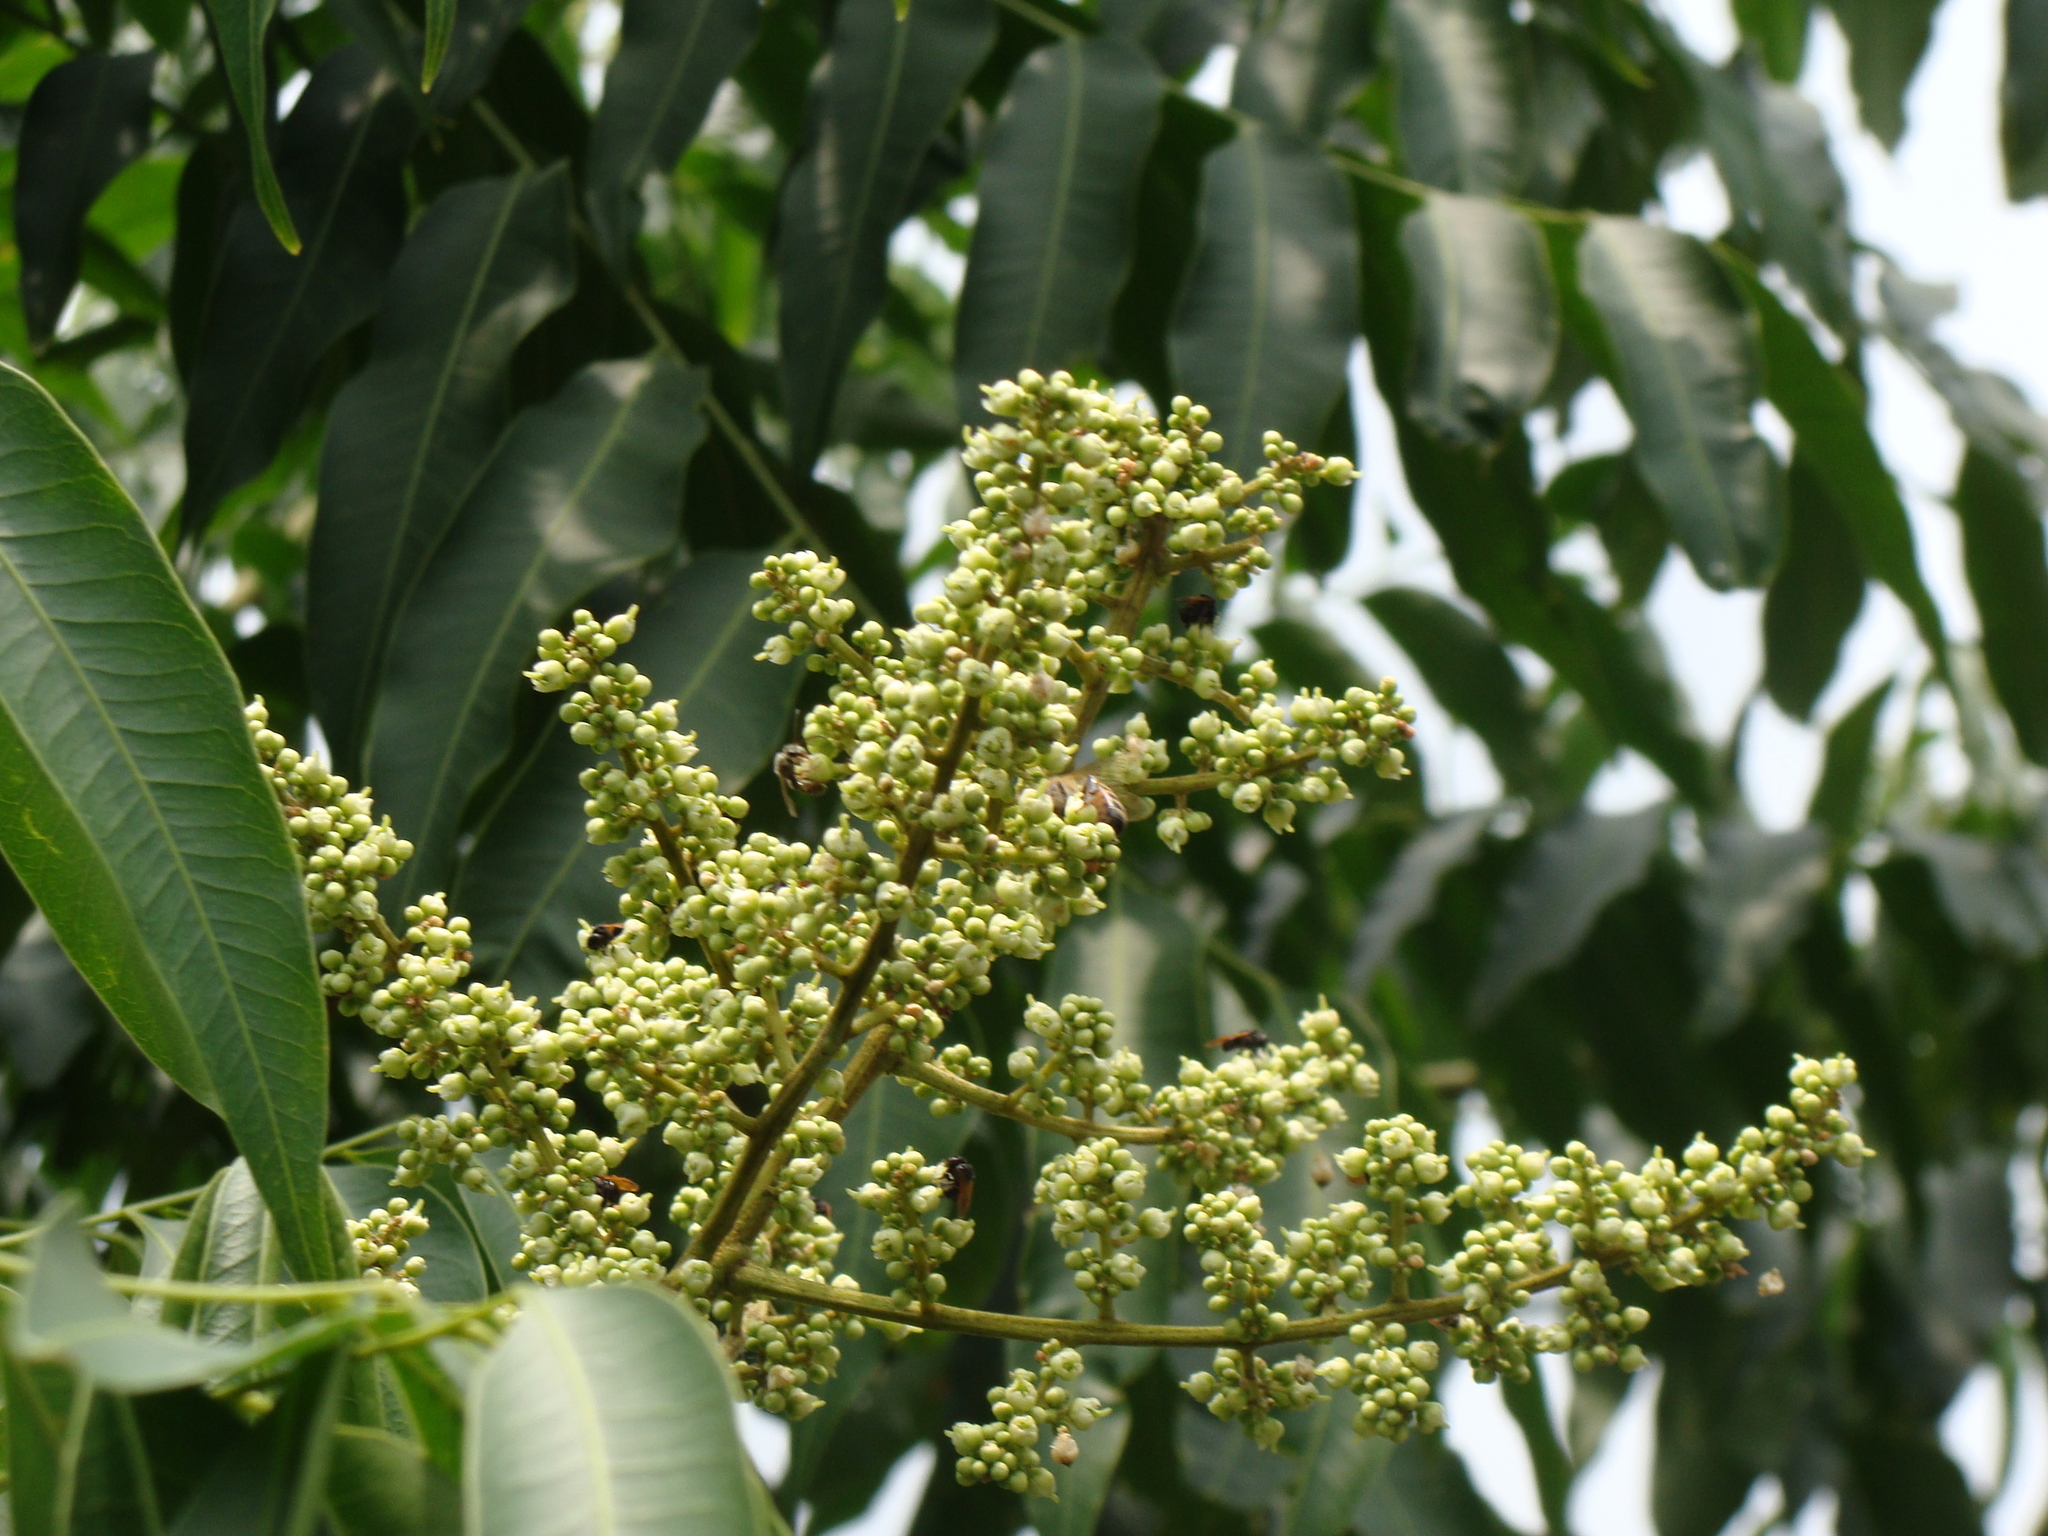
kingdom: Plantae
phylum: Tracheophyta
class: Magnoliopsida
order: Sapindales
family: Sapindaceae
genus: Sapindus
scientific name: Sapindus saponaria
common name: Wingleaf soapberry
